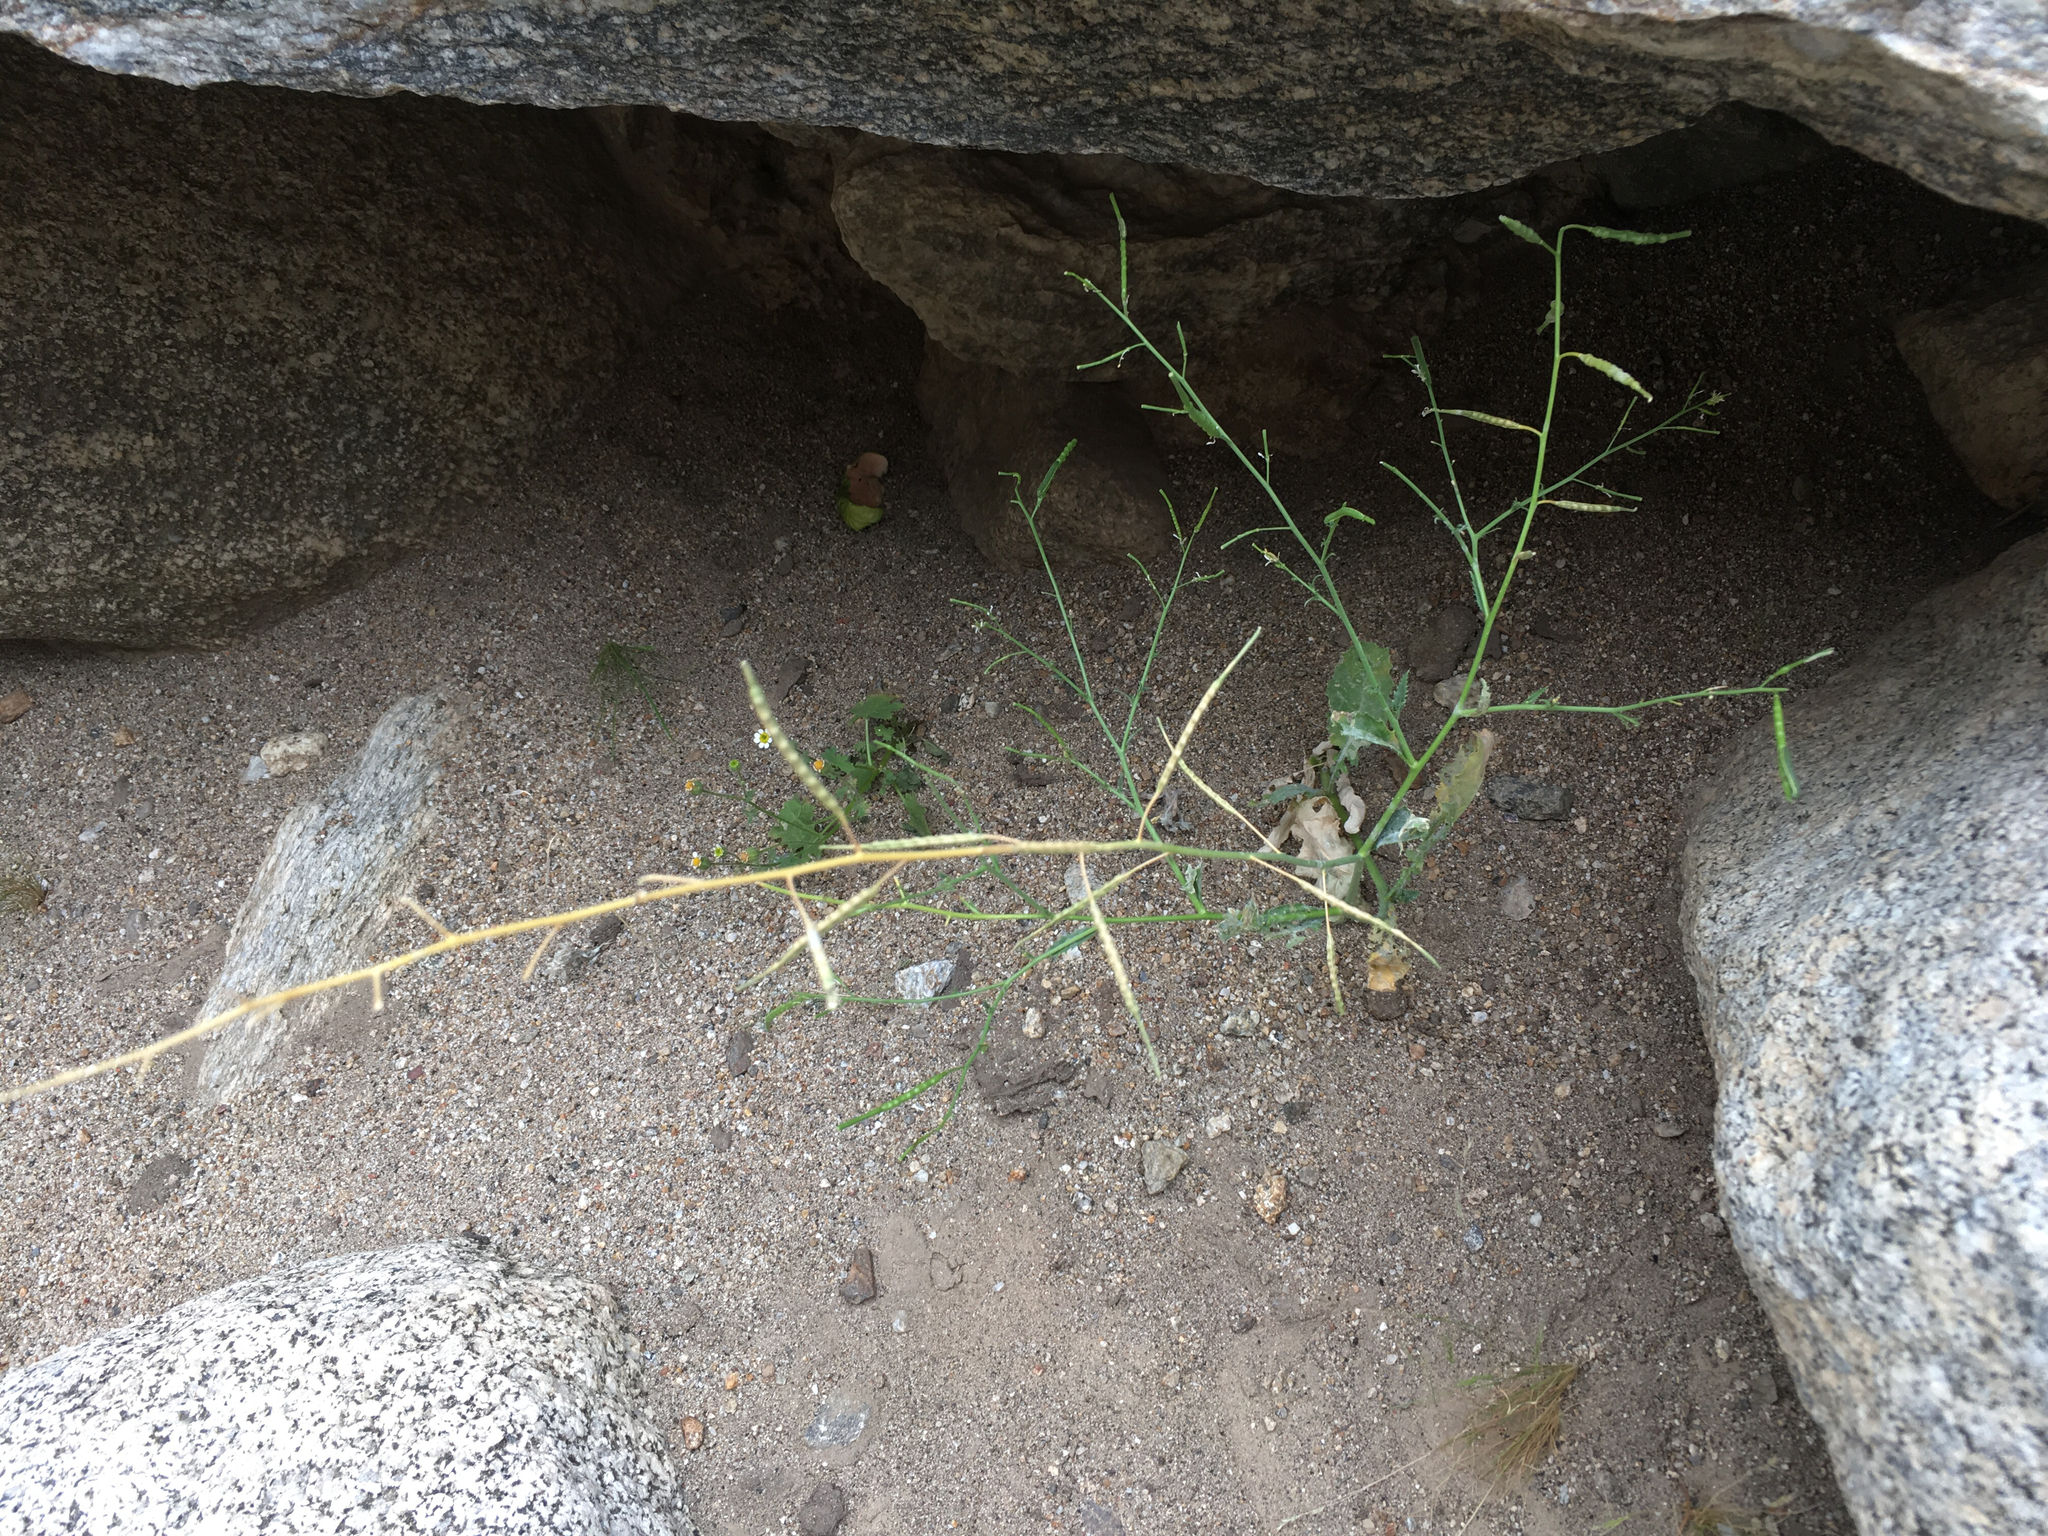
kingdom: Plantae
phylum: Tracheophyta
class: Magnoliopsida
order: Brassicales
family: Brassicaceae
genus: Brassica
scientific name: Brassica tournefortii
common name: Pale cabbage
